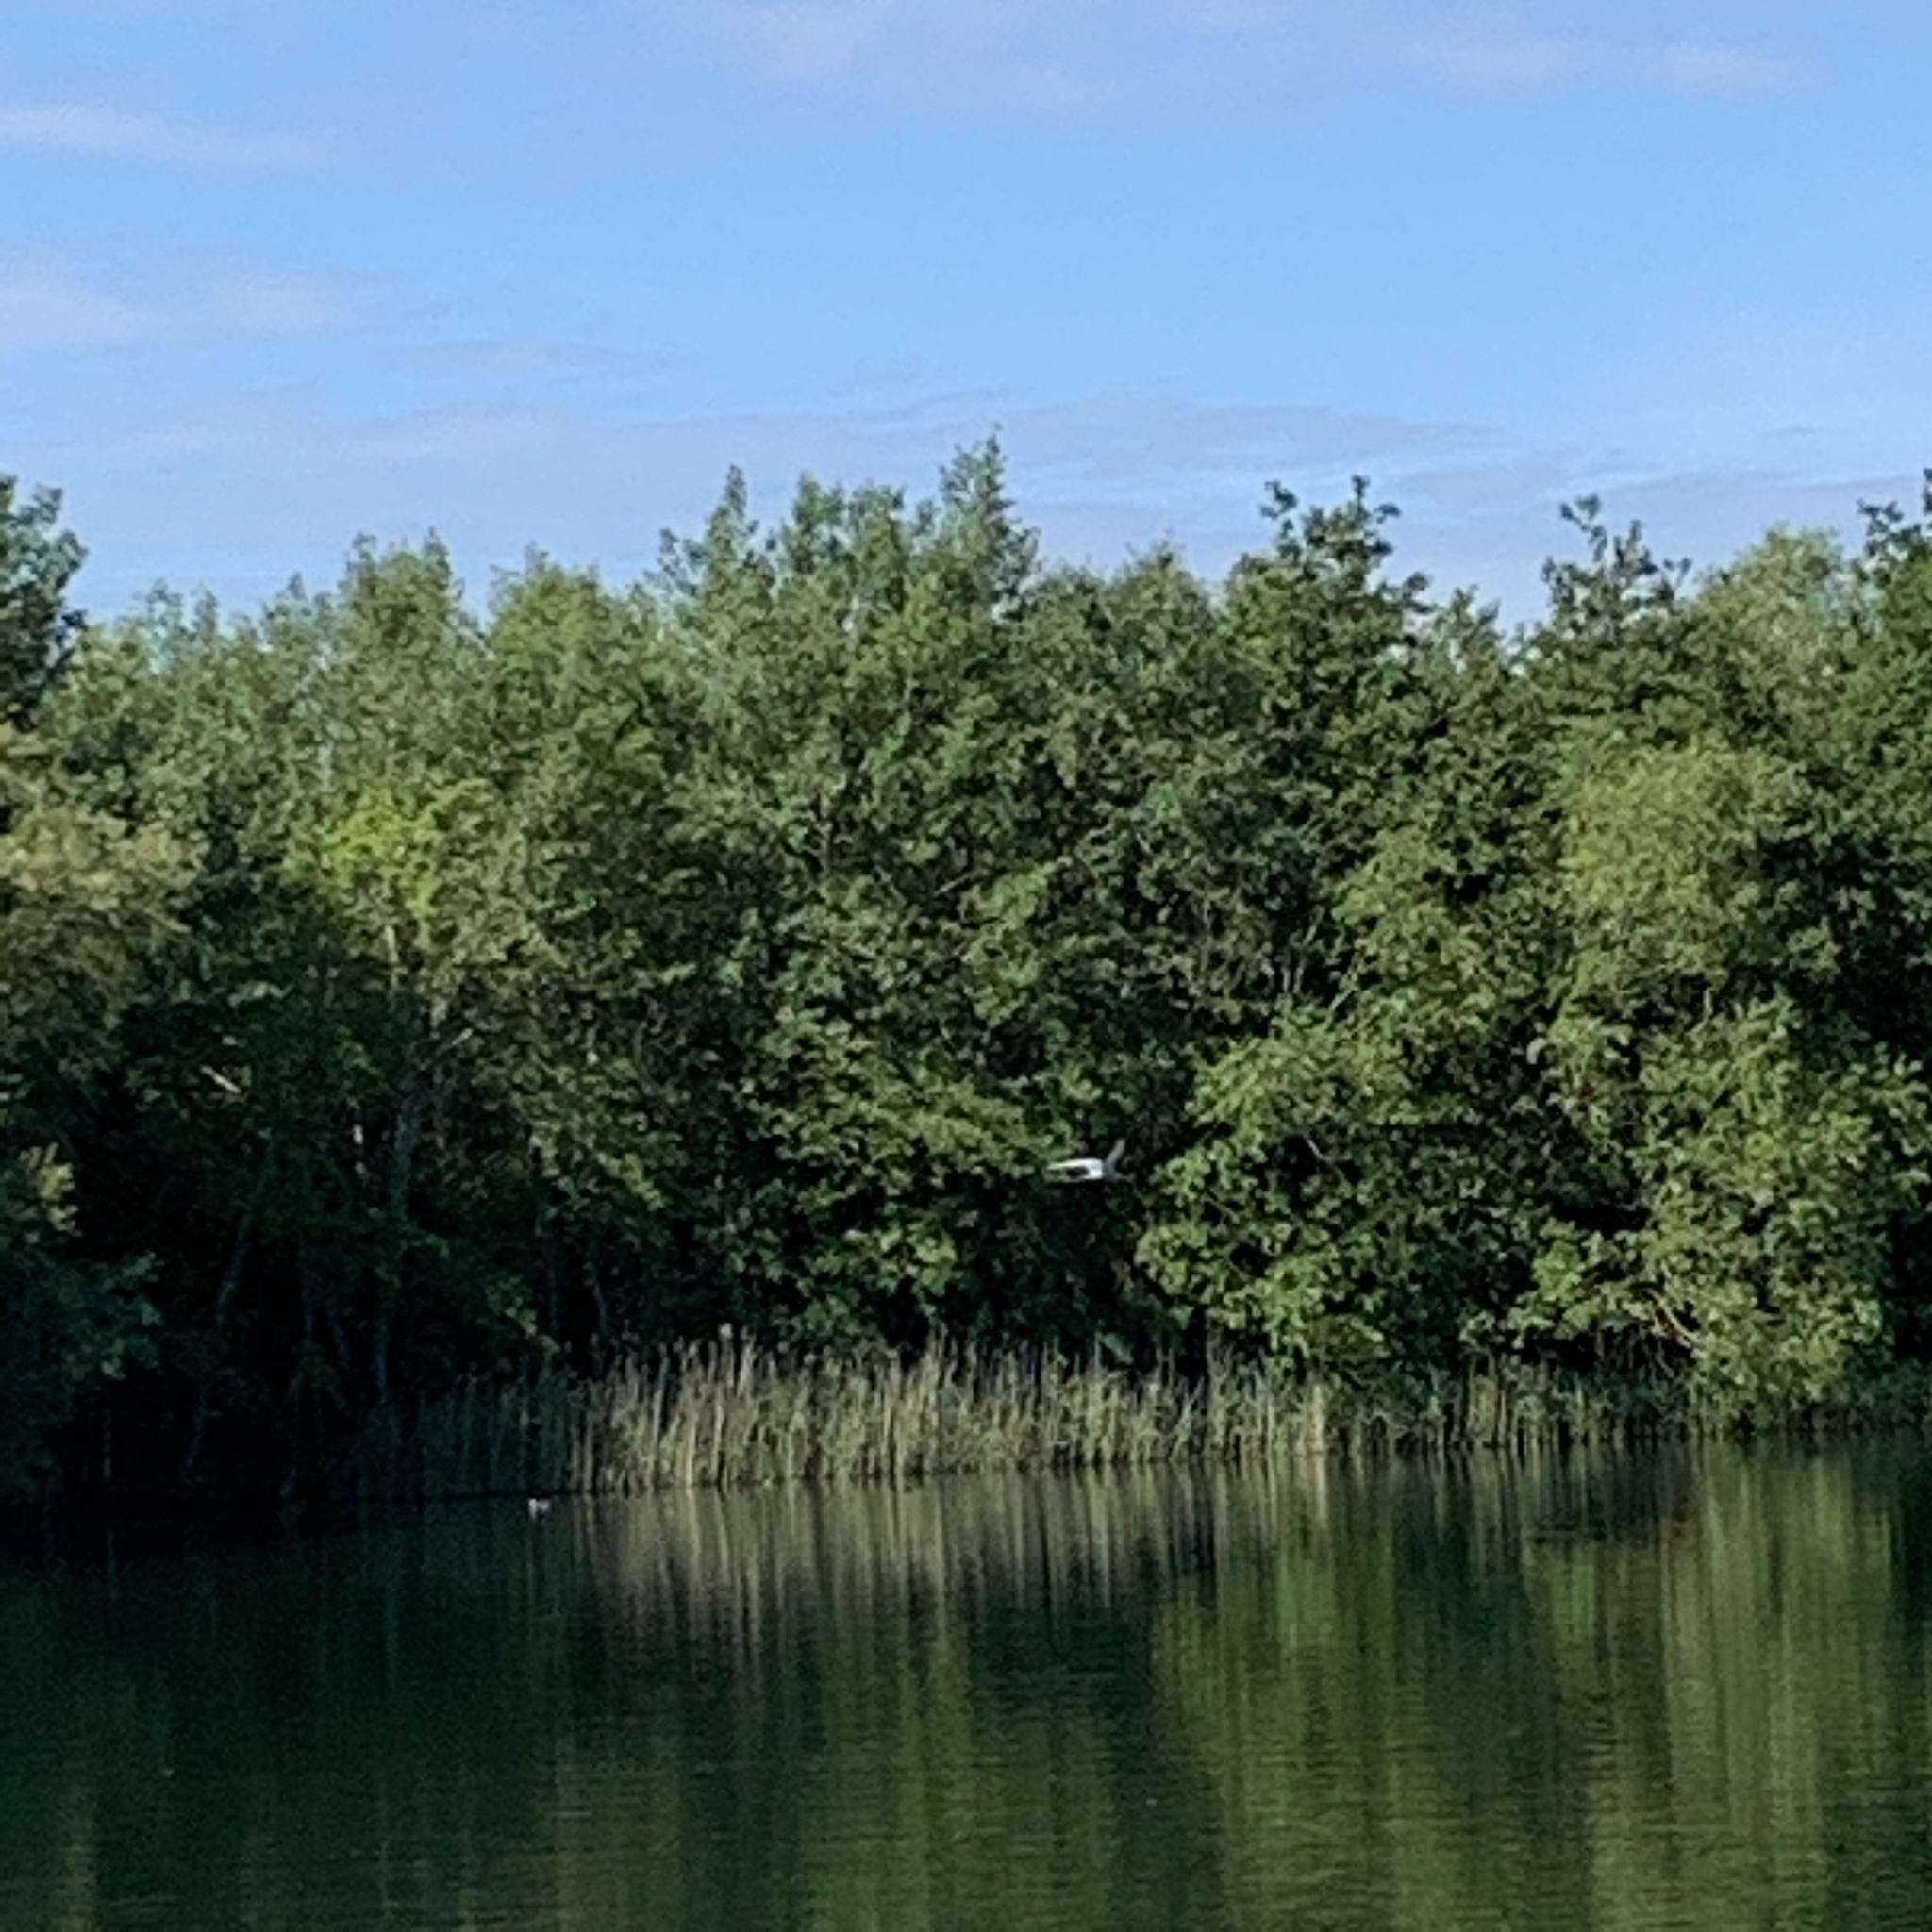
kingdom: Animalia
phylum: Chordata
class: Aves
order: Charadriiformes
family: Laridae
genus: Sterna
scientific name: Sterna hirundo
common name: Common tern
